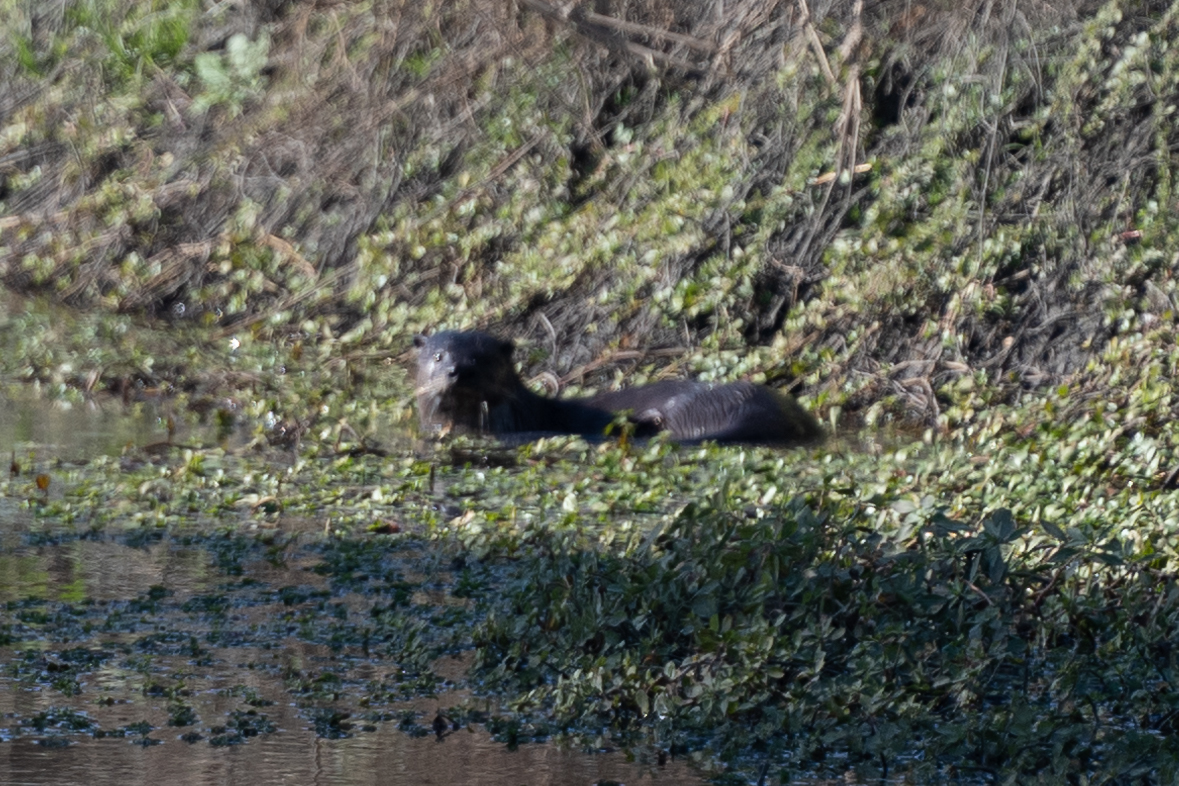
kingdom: Animalia
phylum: Chordata
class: Mammalia
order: Carnivora
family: Mustelidae
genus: Lontra
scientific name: Lontra canadensis
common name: North american river otter
